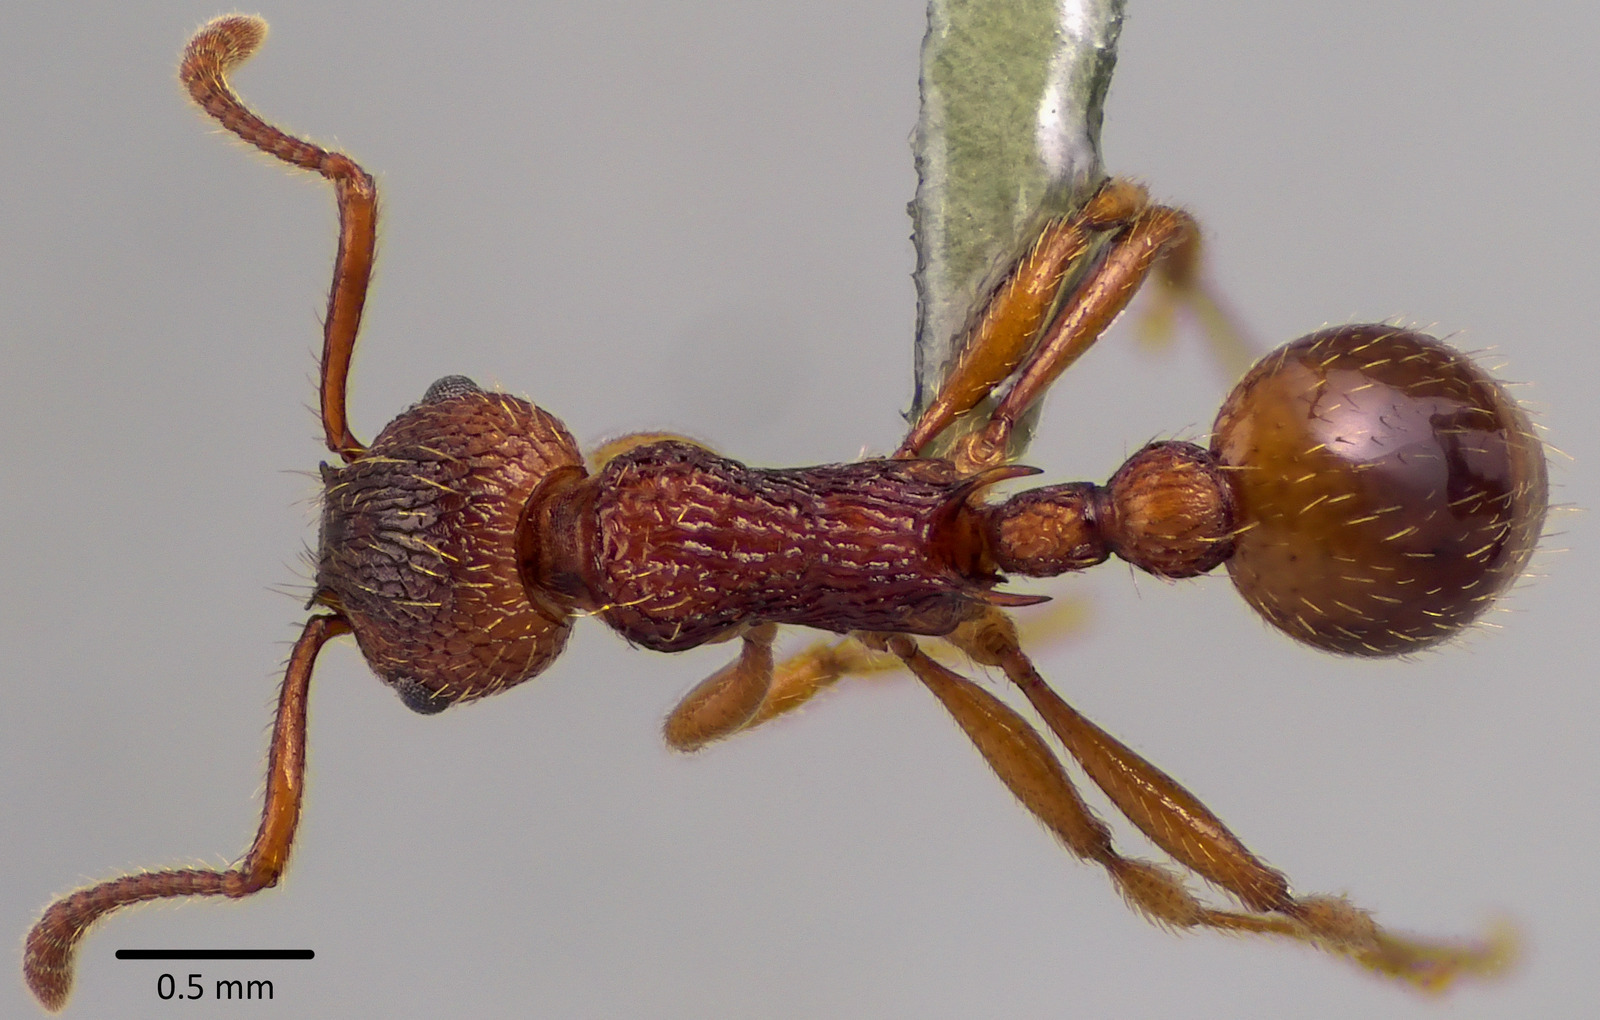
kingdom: Animalia
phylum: Arthropoda
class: Insecta
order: Hymenoptera
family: Formicidae
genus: Myrmica
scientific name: Myrmica
